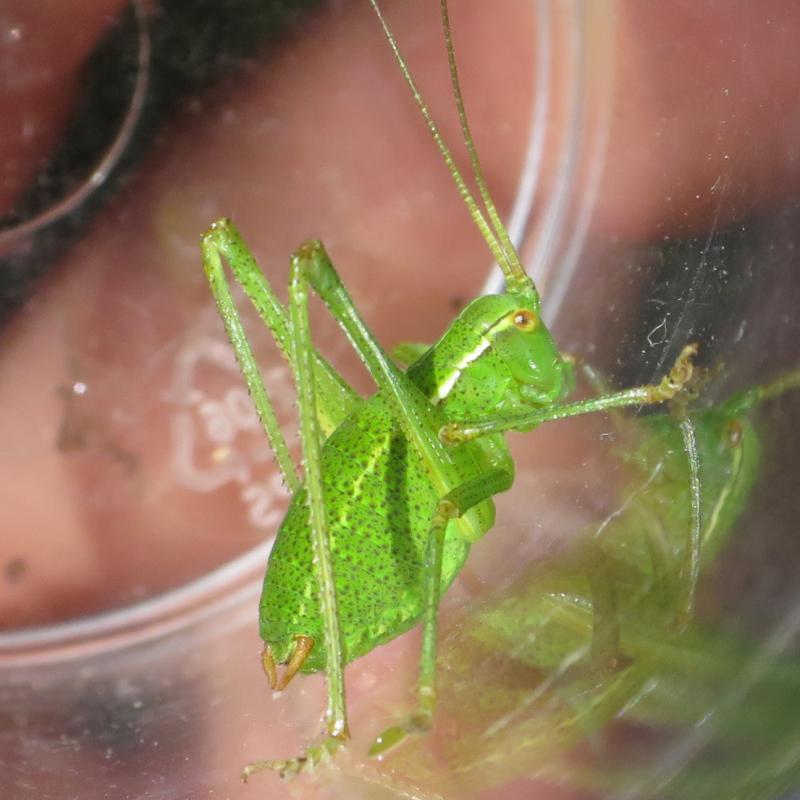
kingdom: Animalia
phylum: Arthropoda
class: Insecta
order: Orthoptera
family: Tettigoniidae
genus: Barbitistes
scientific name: Barbitistes serricauda
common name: Saw-tailed bush-cricket
